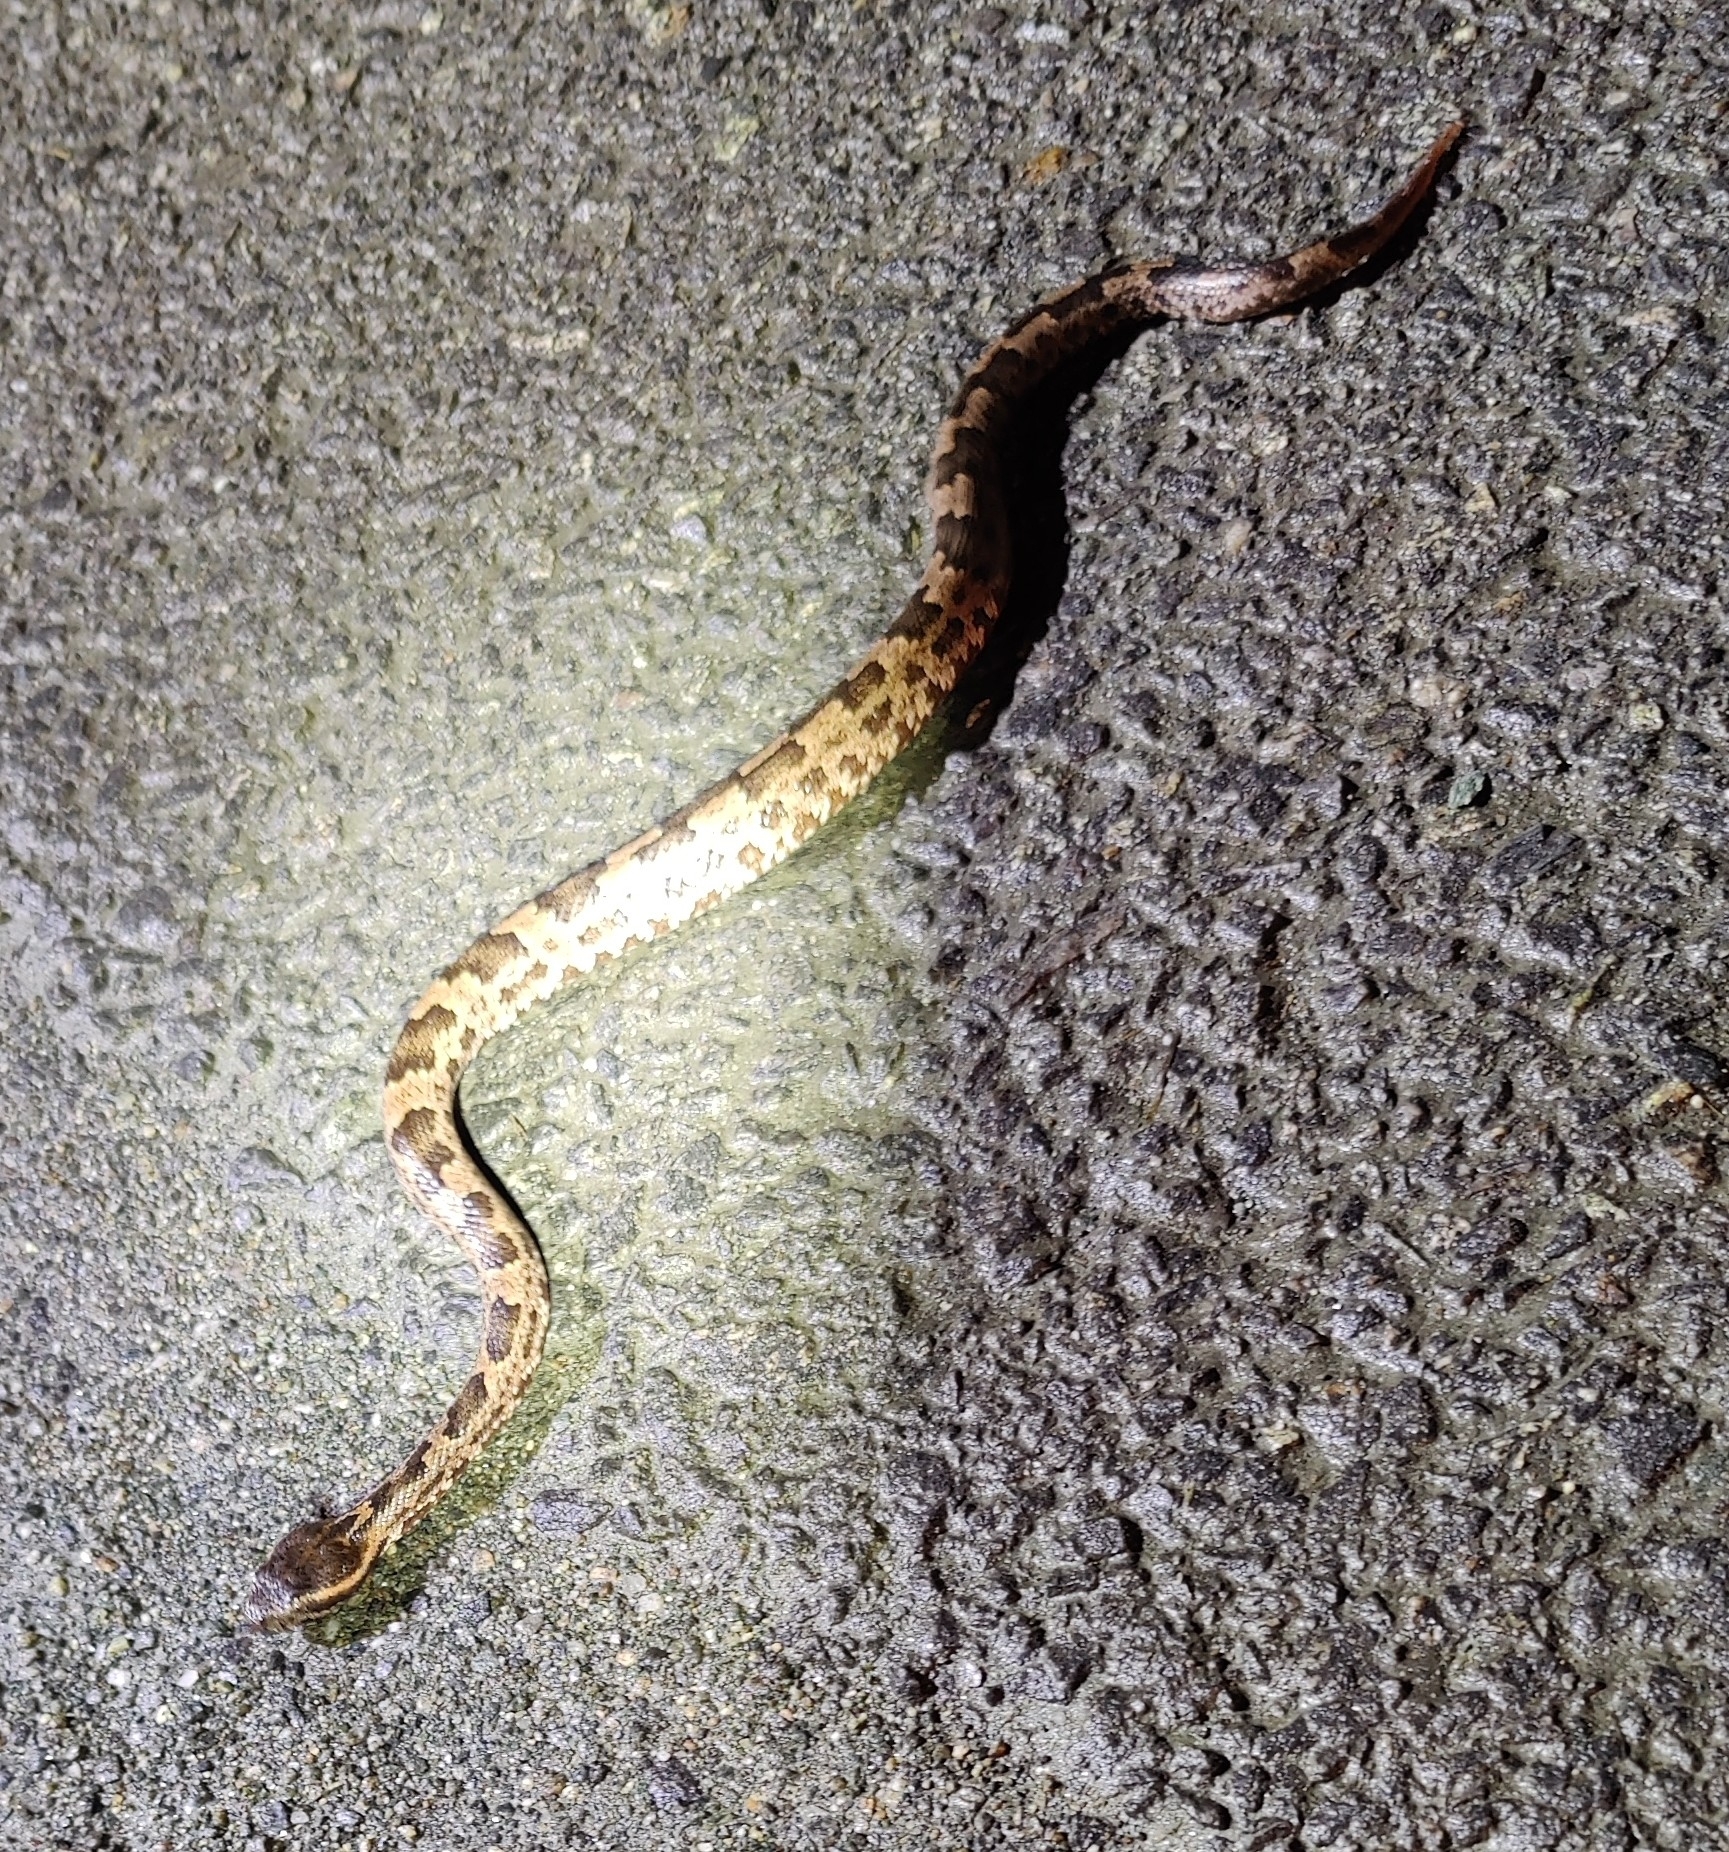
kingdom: Animalia
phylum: Chordata
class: Squamata
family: Viperidae
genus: Ovophis
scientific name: Ovophis monticola
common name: Mountain pit viper
